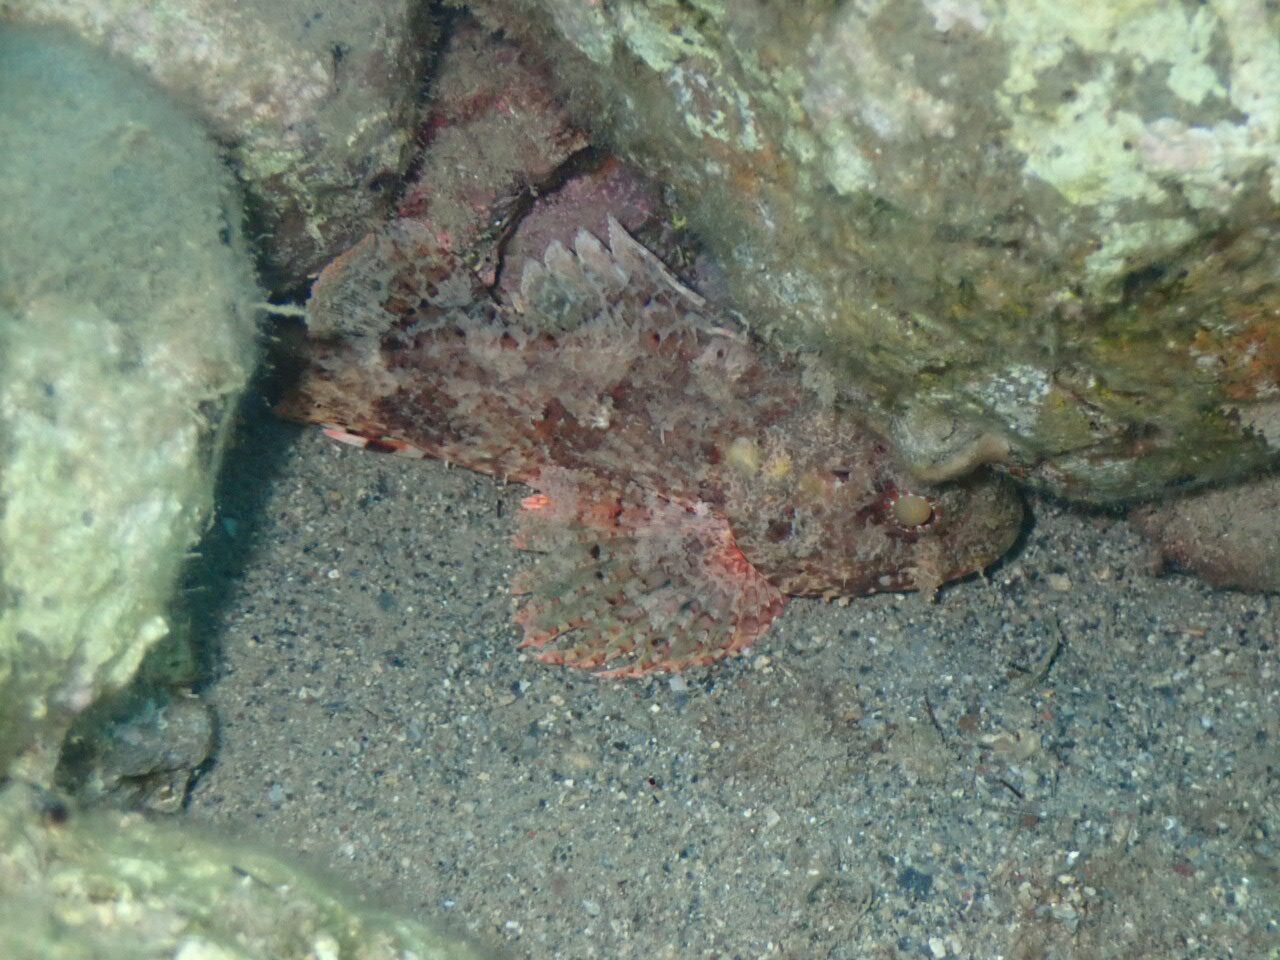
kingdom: Animalia
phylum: Chordata
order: Scorpaeniformes
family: Scorpaenidae
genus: Scorpaena
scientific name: Scorpaena notata
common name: Small red scorpionfish
